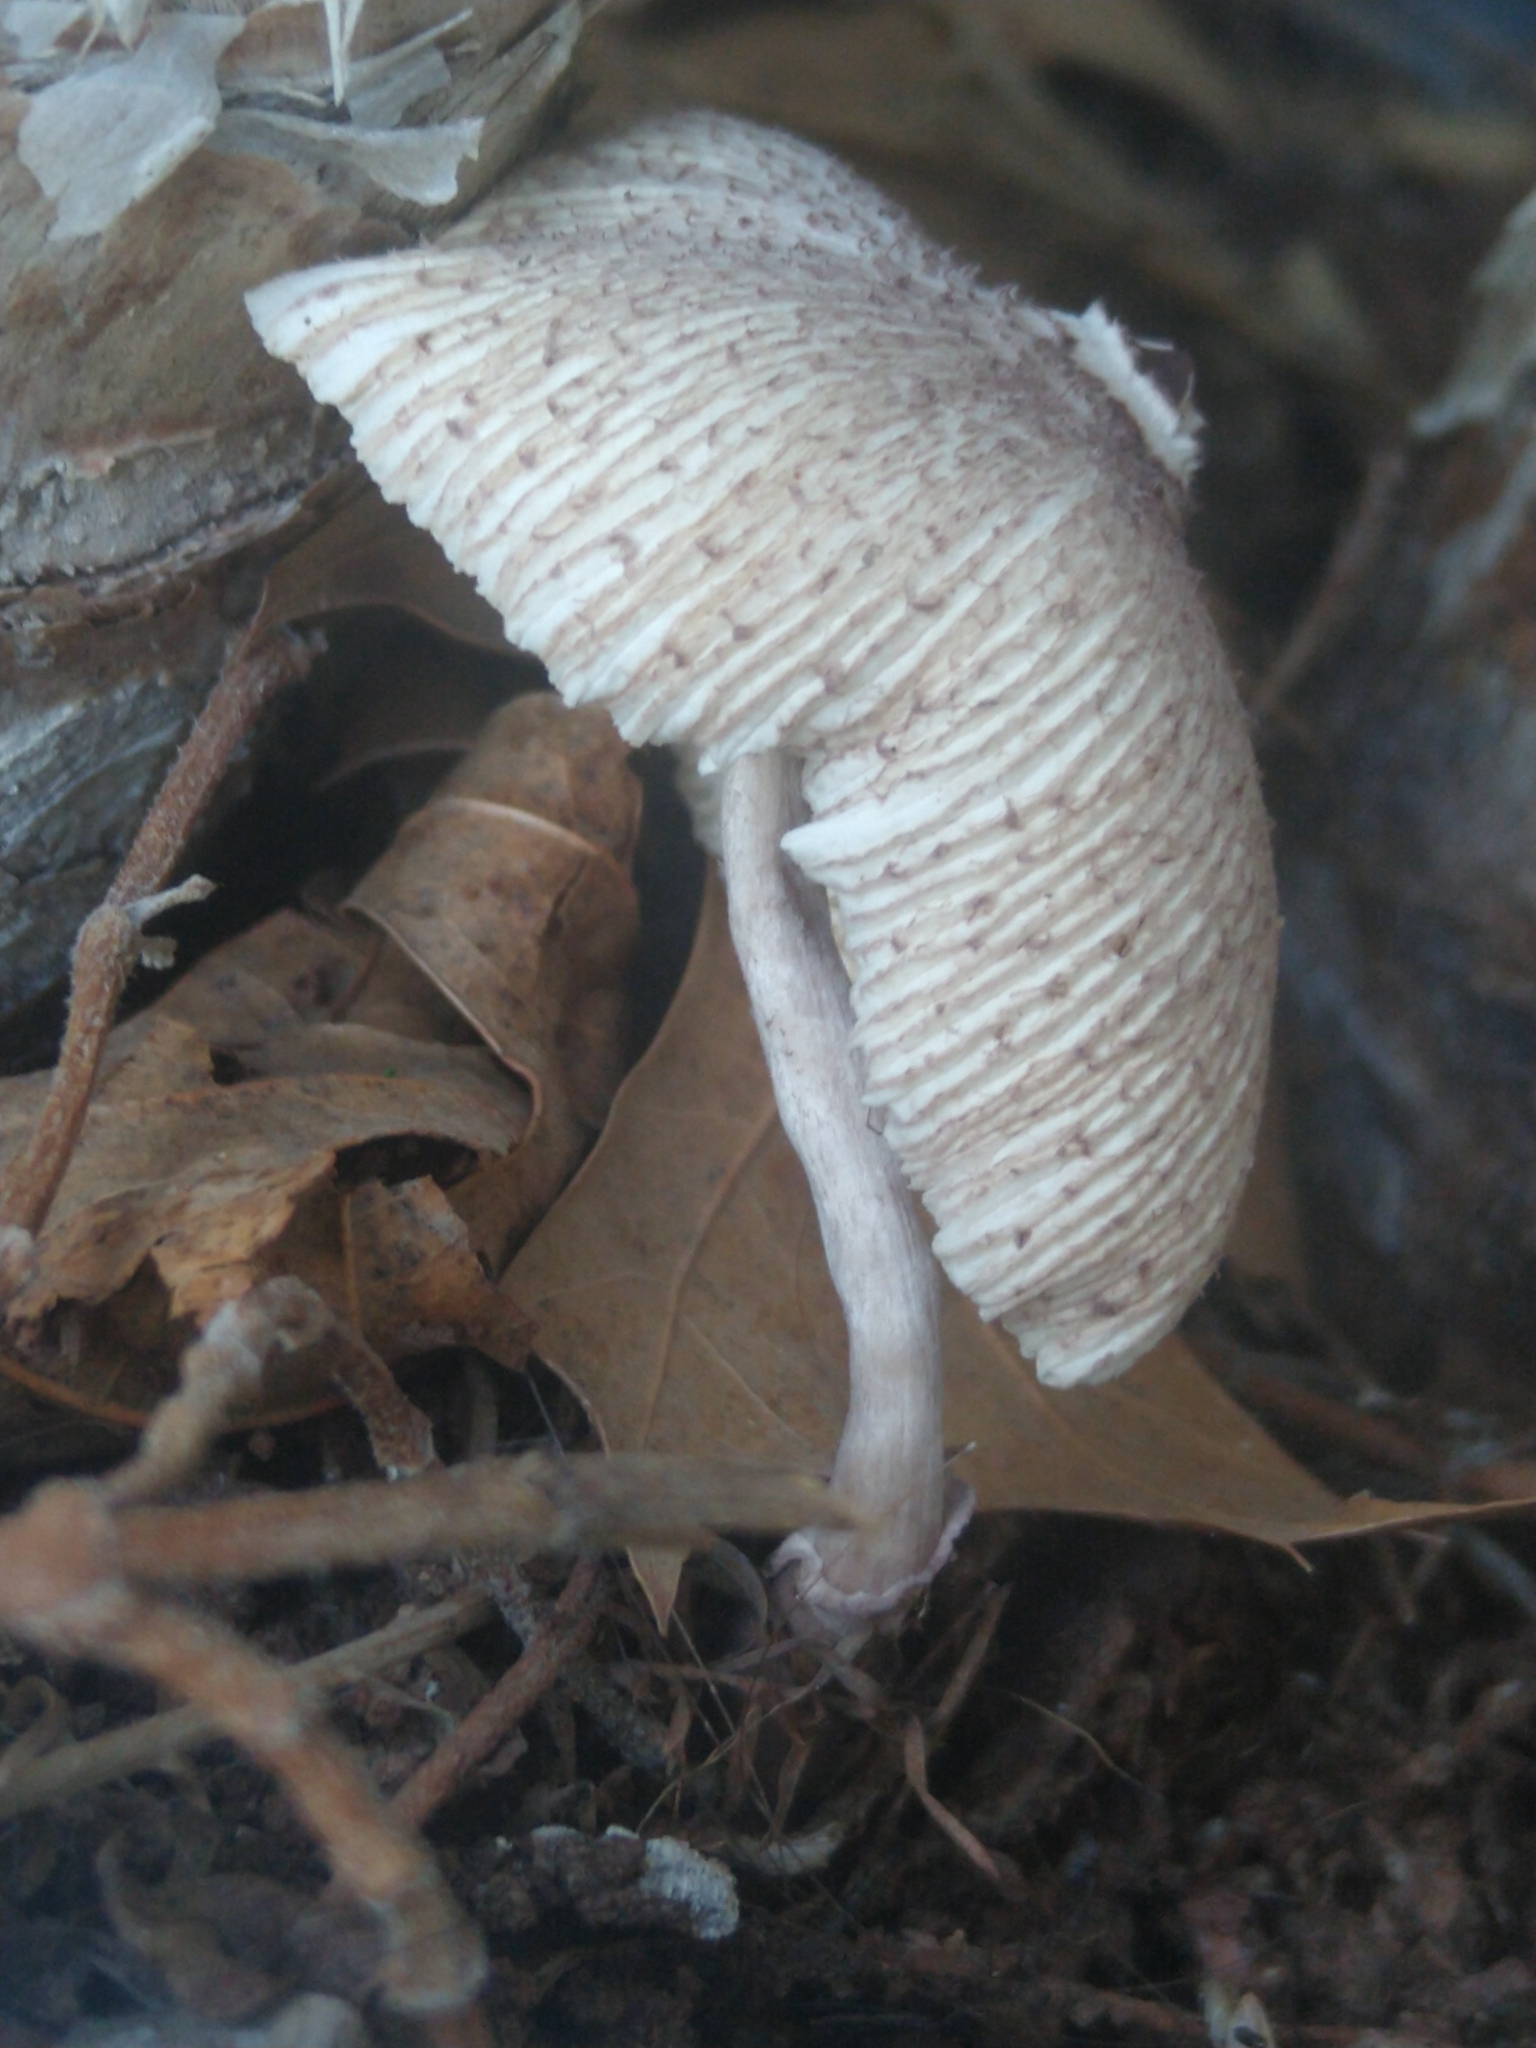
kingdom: Fungi
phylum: Basidiomycota
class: Agaricomycetes
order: Agaricales
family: Agaricaceae
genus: Leucocoprinus
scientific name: Leucocoprinus ianthinus
